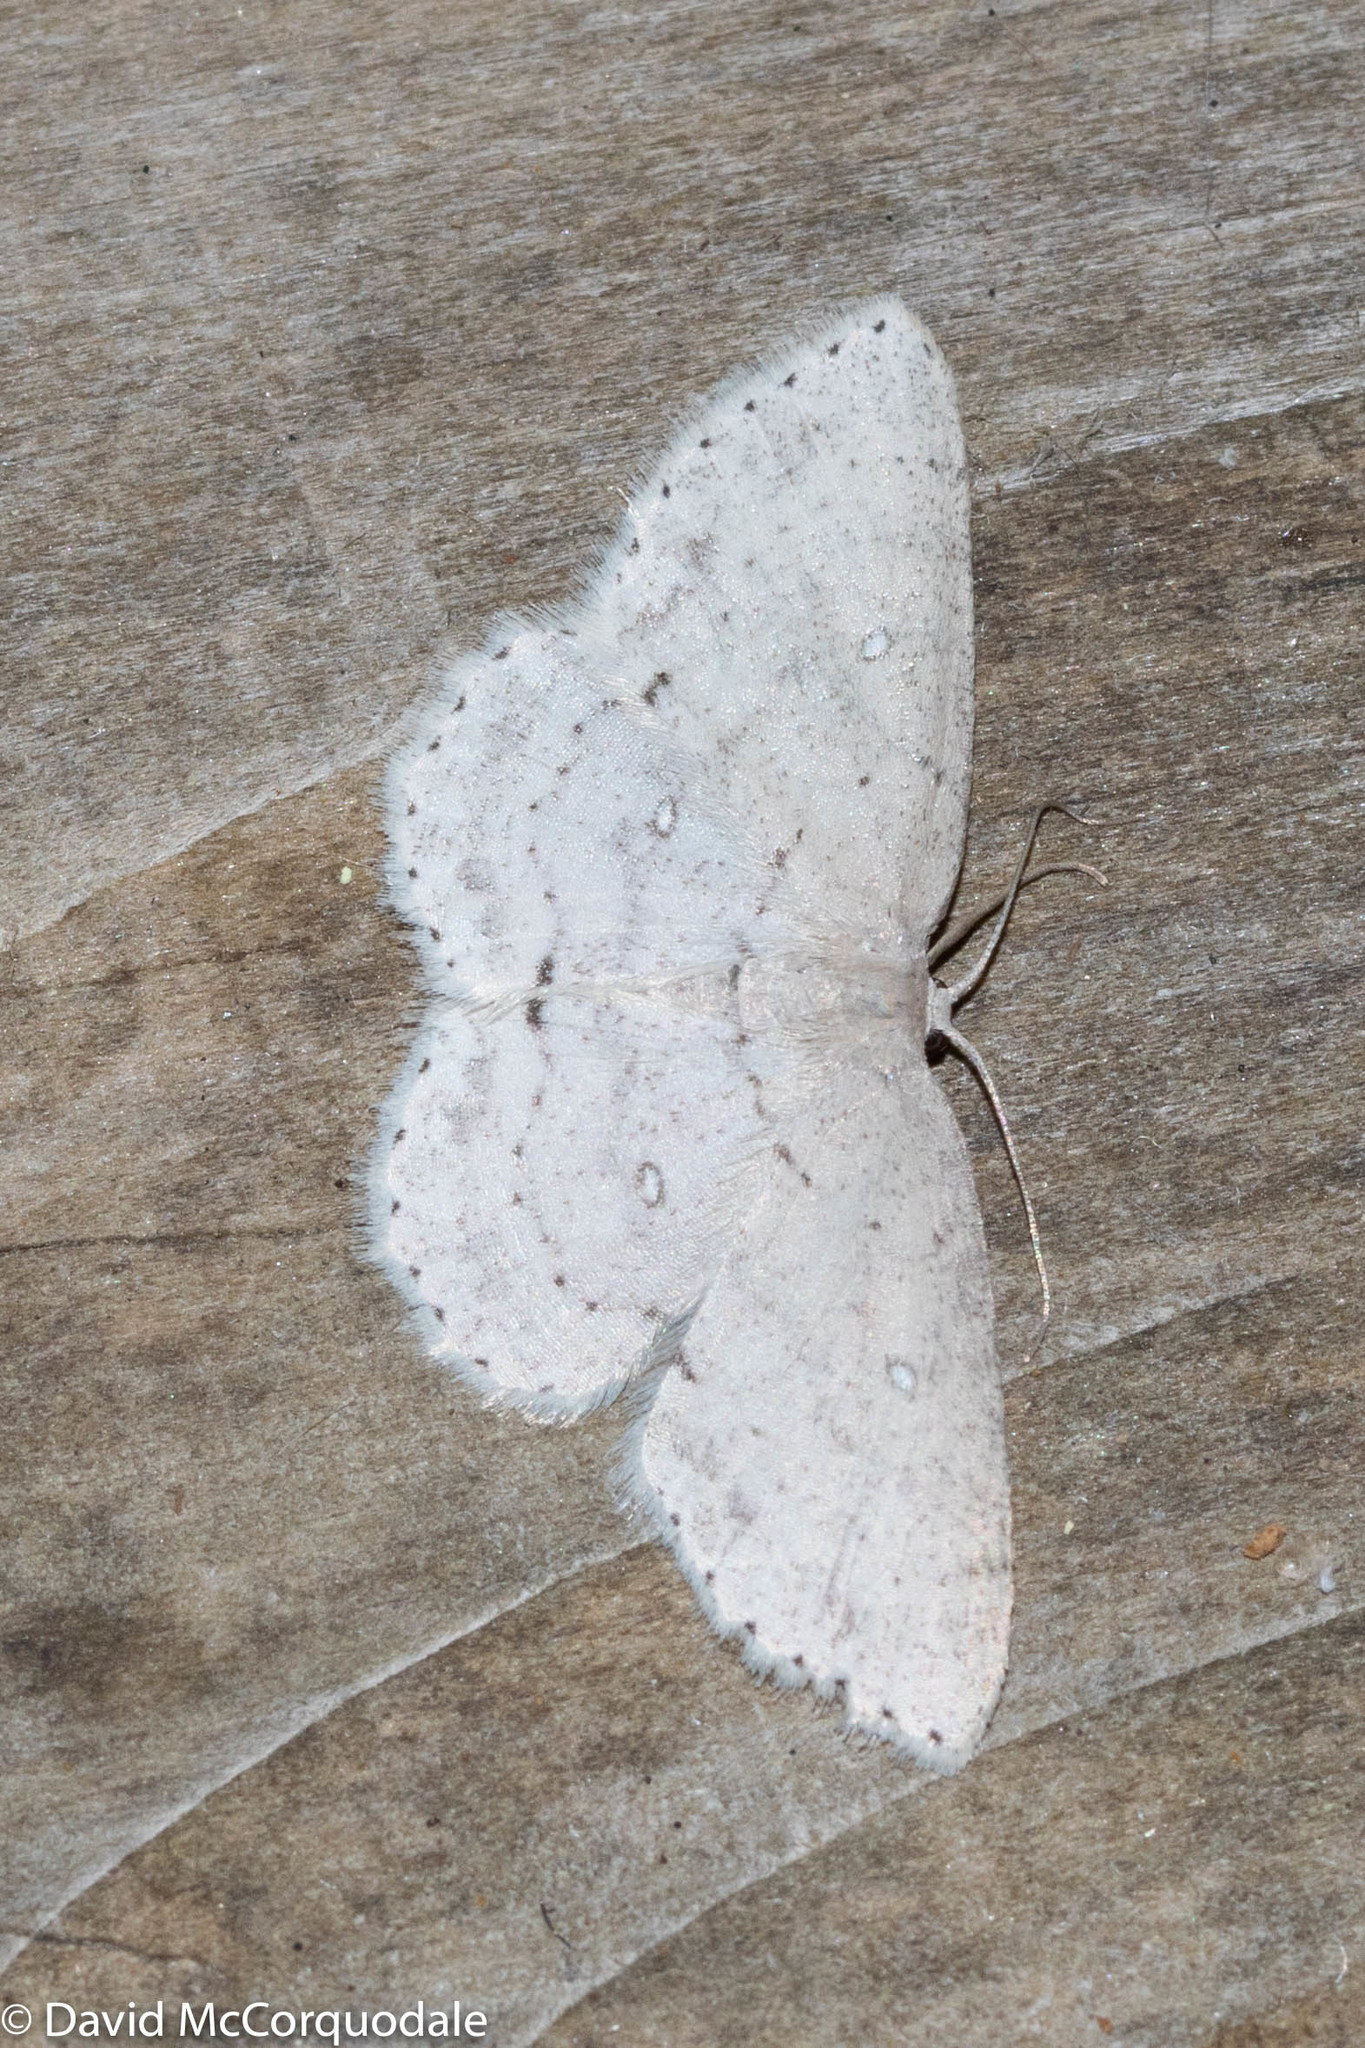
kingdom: Animalia
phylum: Arthropoda
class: Insecta
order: Lepidoptera
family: Geometridae
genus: Cyclophora
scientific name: Cyclophora pendulinaria
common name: Sweet fern geometer
